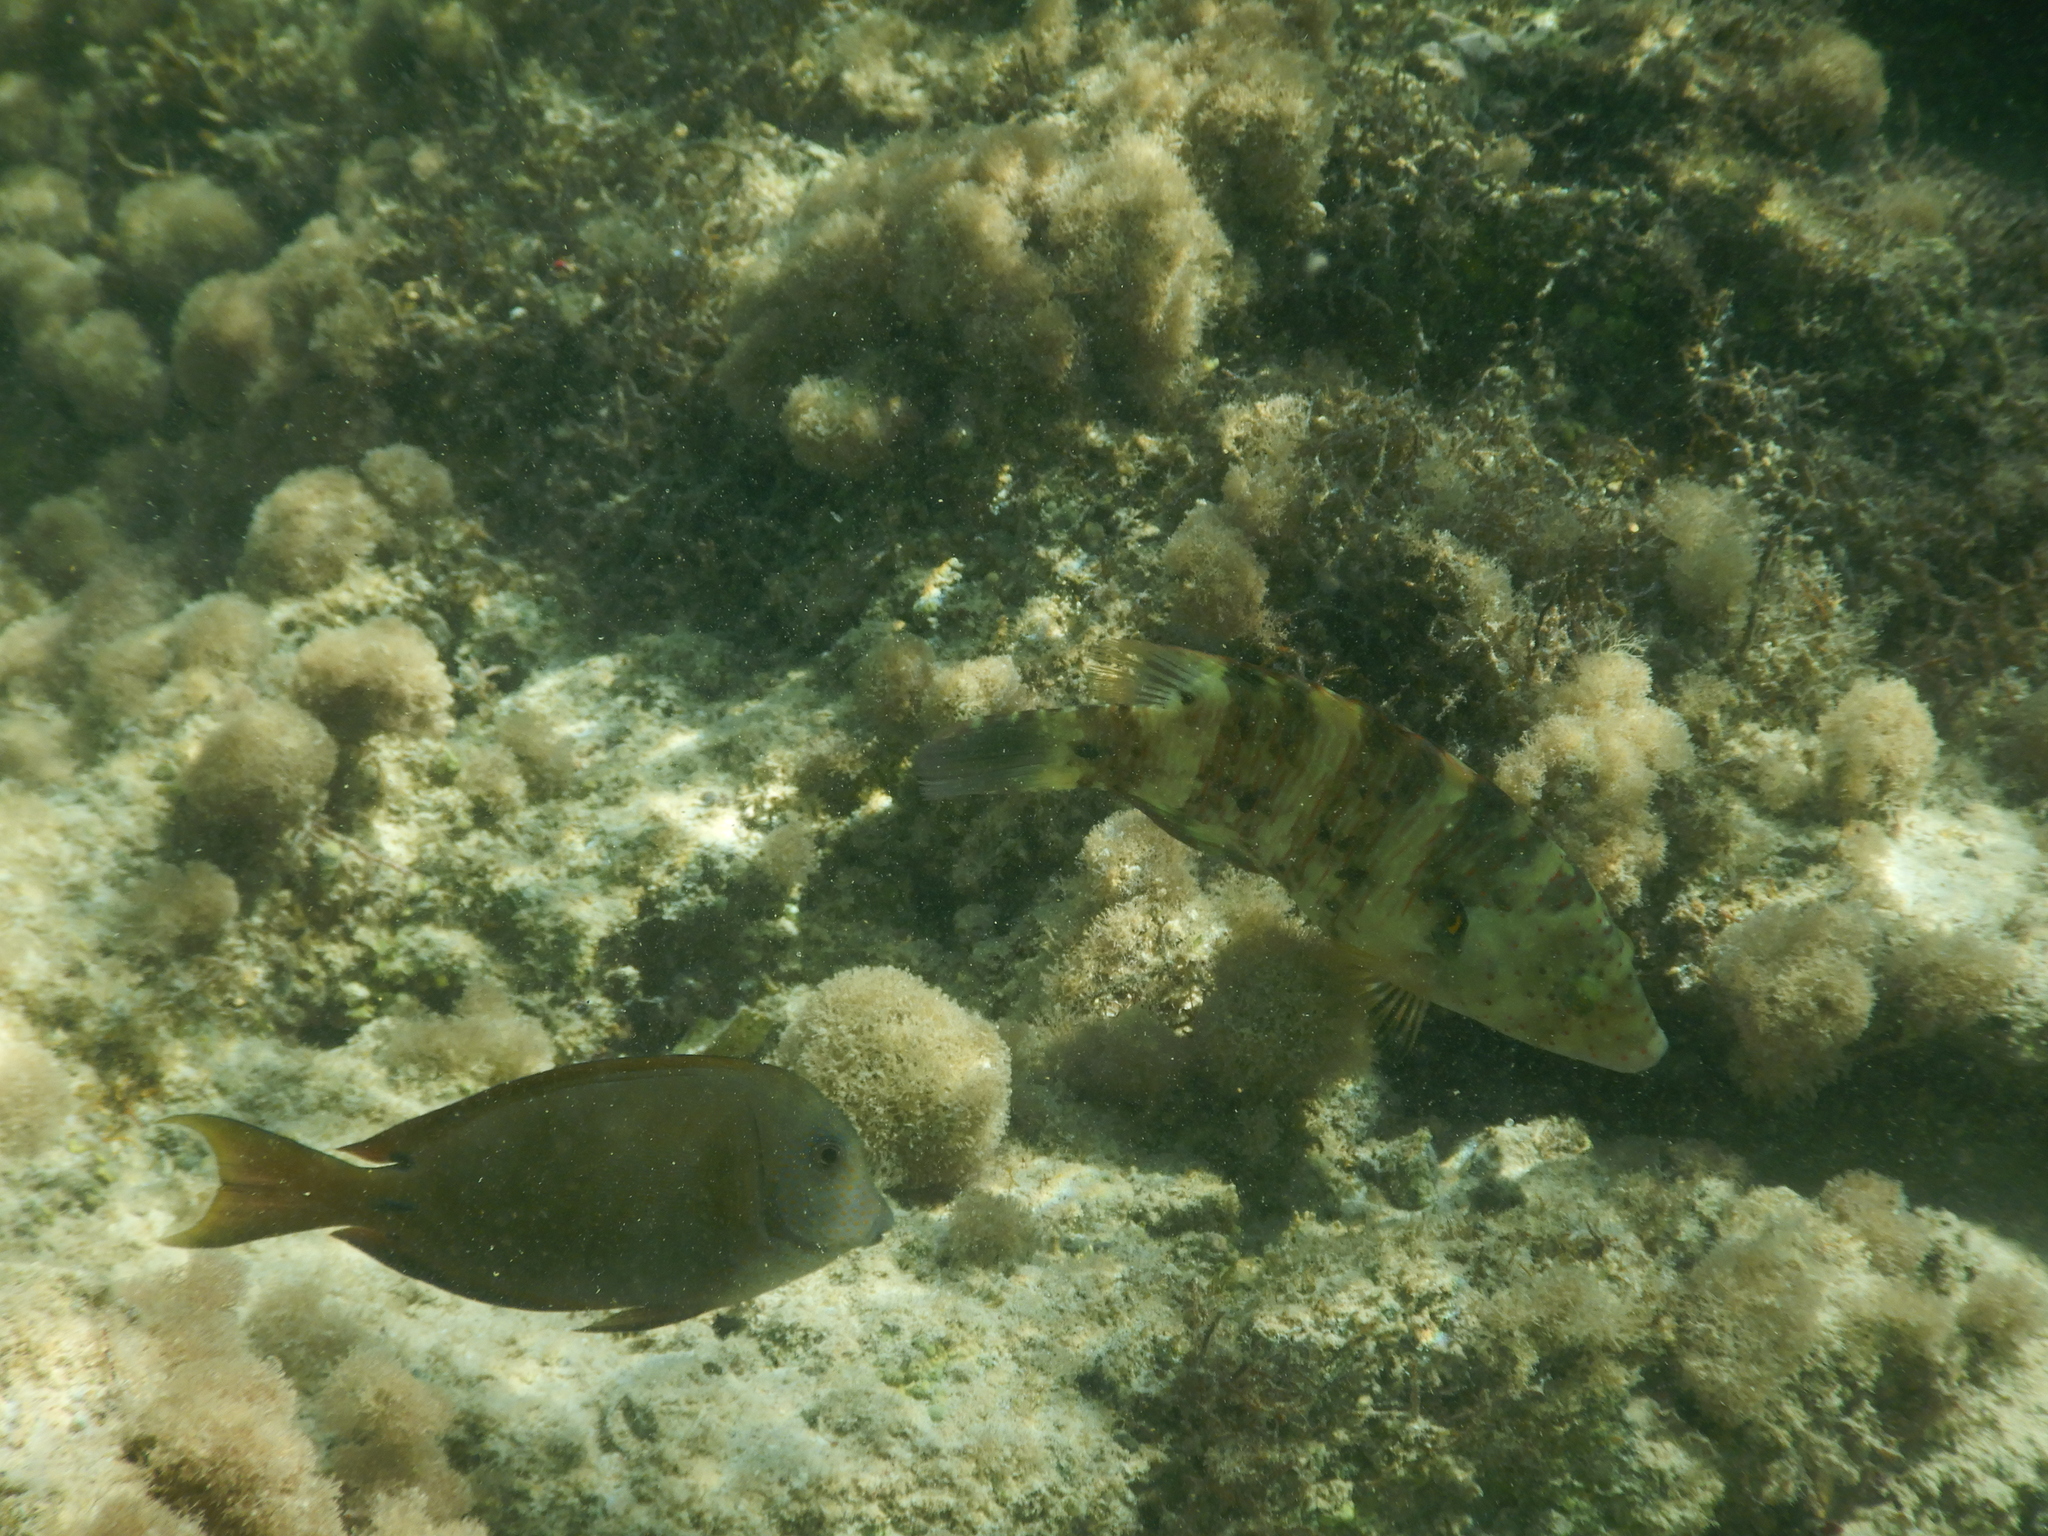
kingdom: Animalia
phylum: Chordata
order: Perciformes
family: Acanthuridae
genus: Acanthurus
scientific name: Acanthurus nigrofuscus
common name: Blackspot surgeonfish
